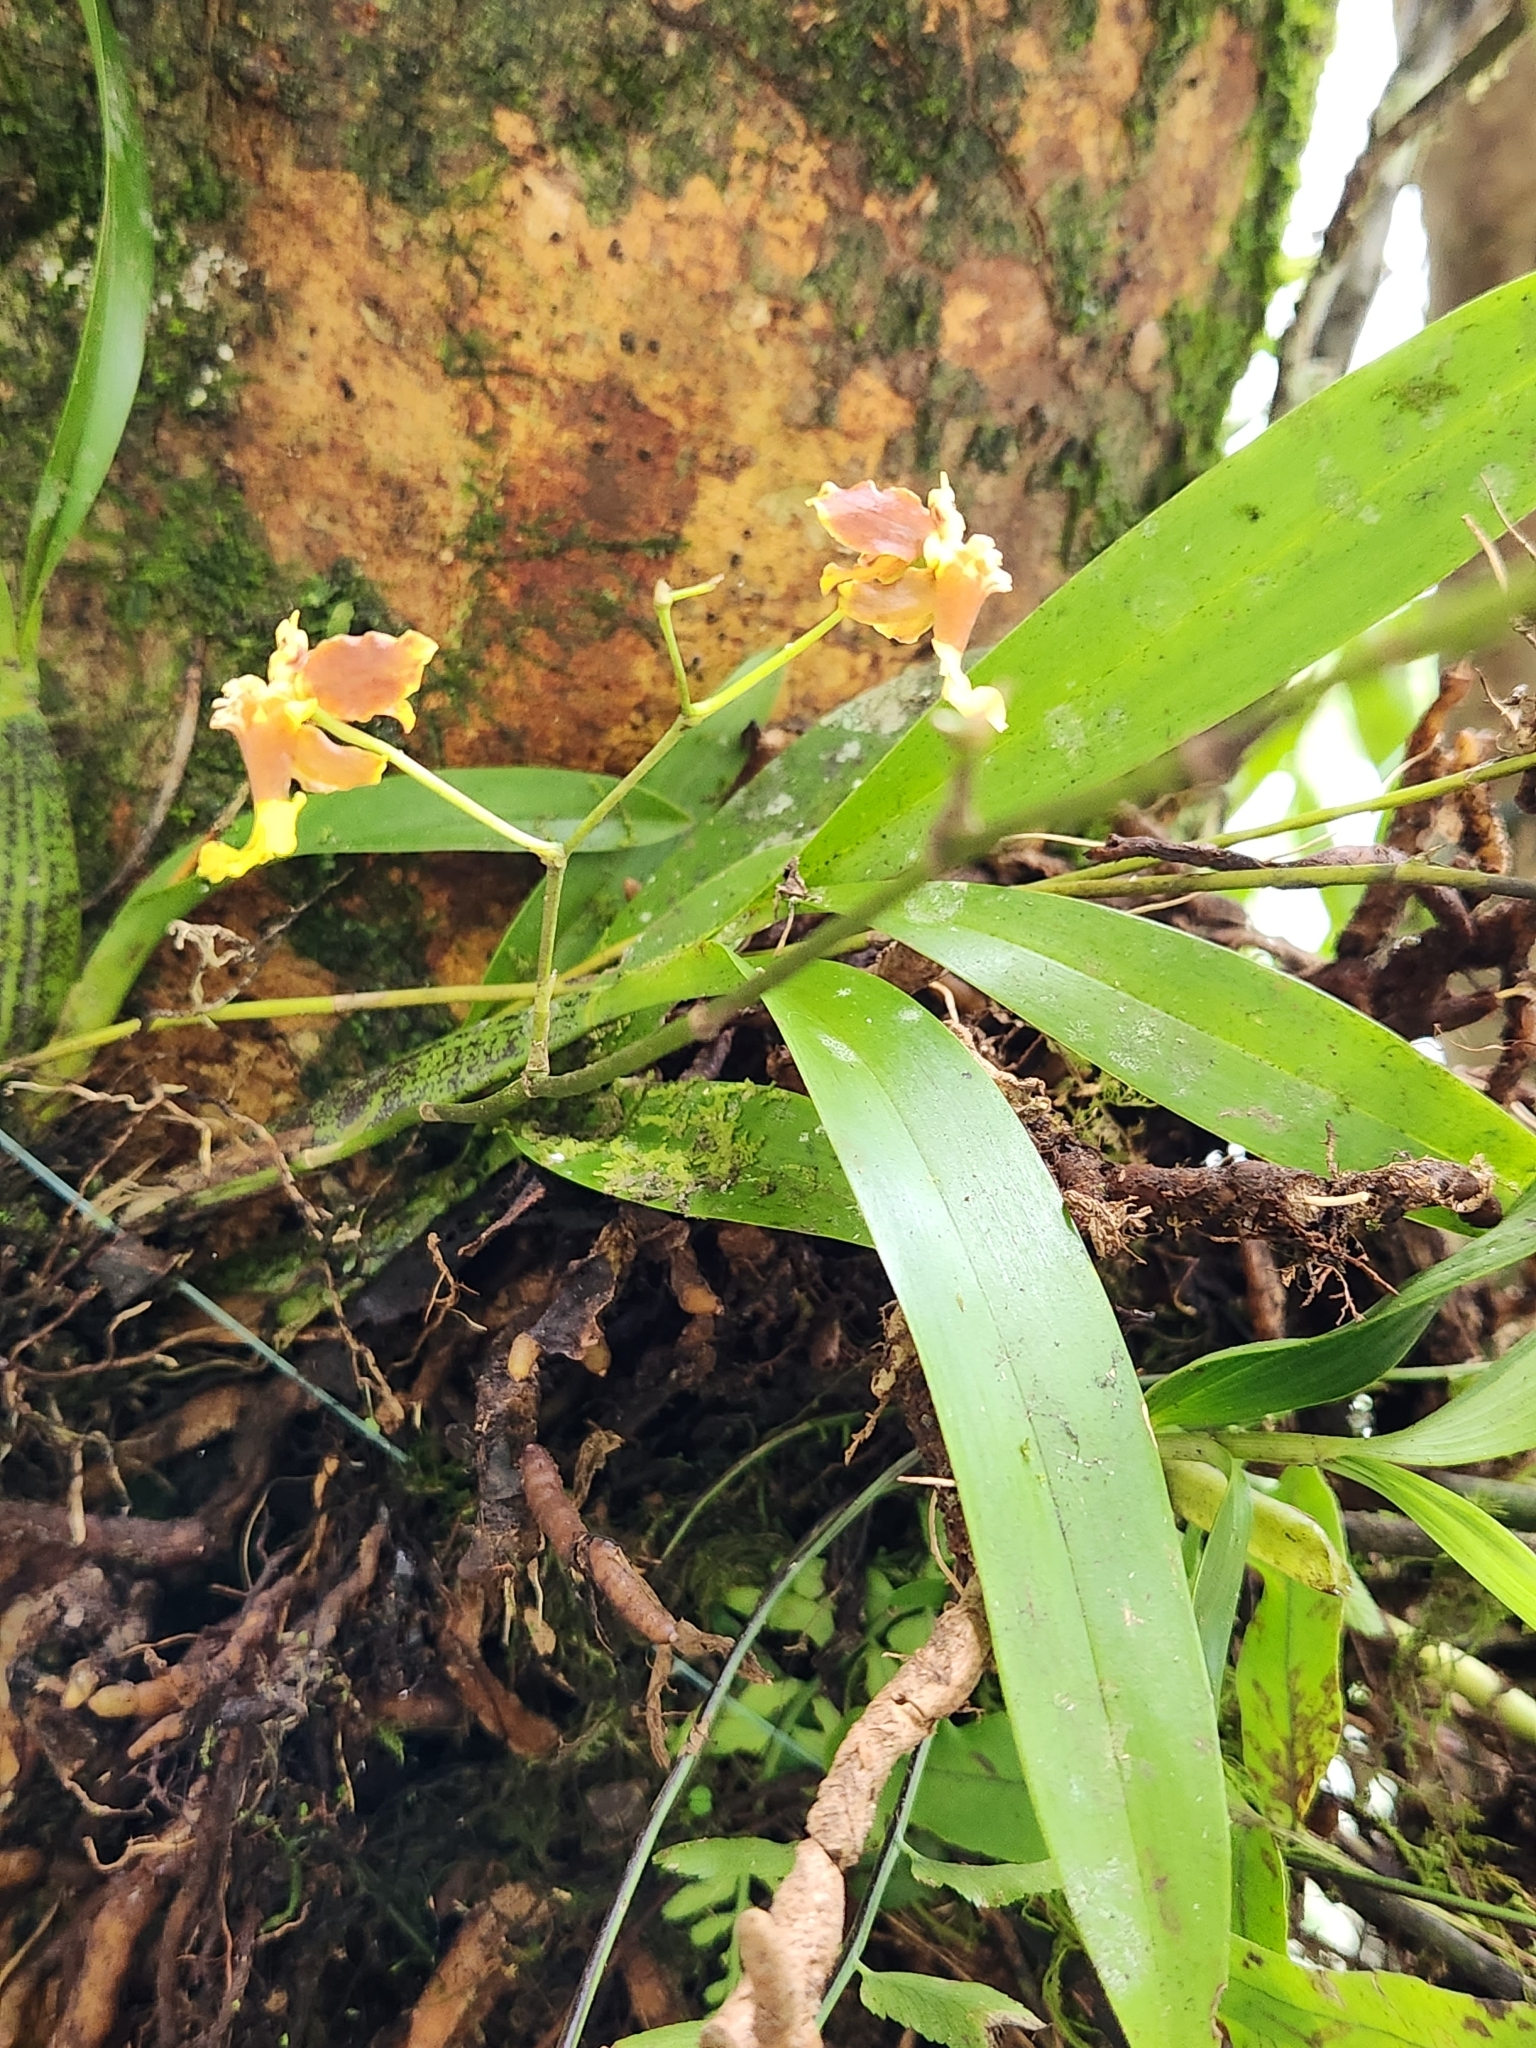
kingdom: Plantae
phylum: Tracheophyta
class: Liliopsida
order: Asparagales
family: Orchidaceae
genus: Oncidium
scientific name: Oncidium dichromaticum
